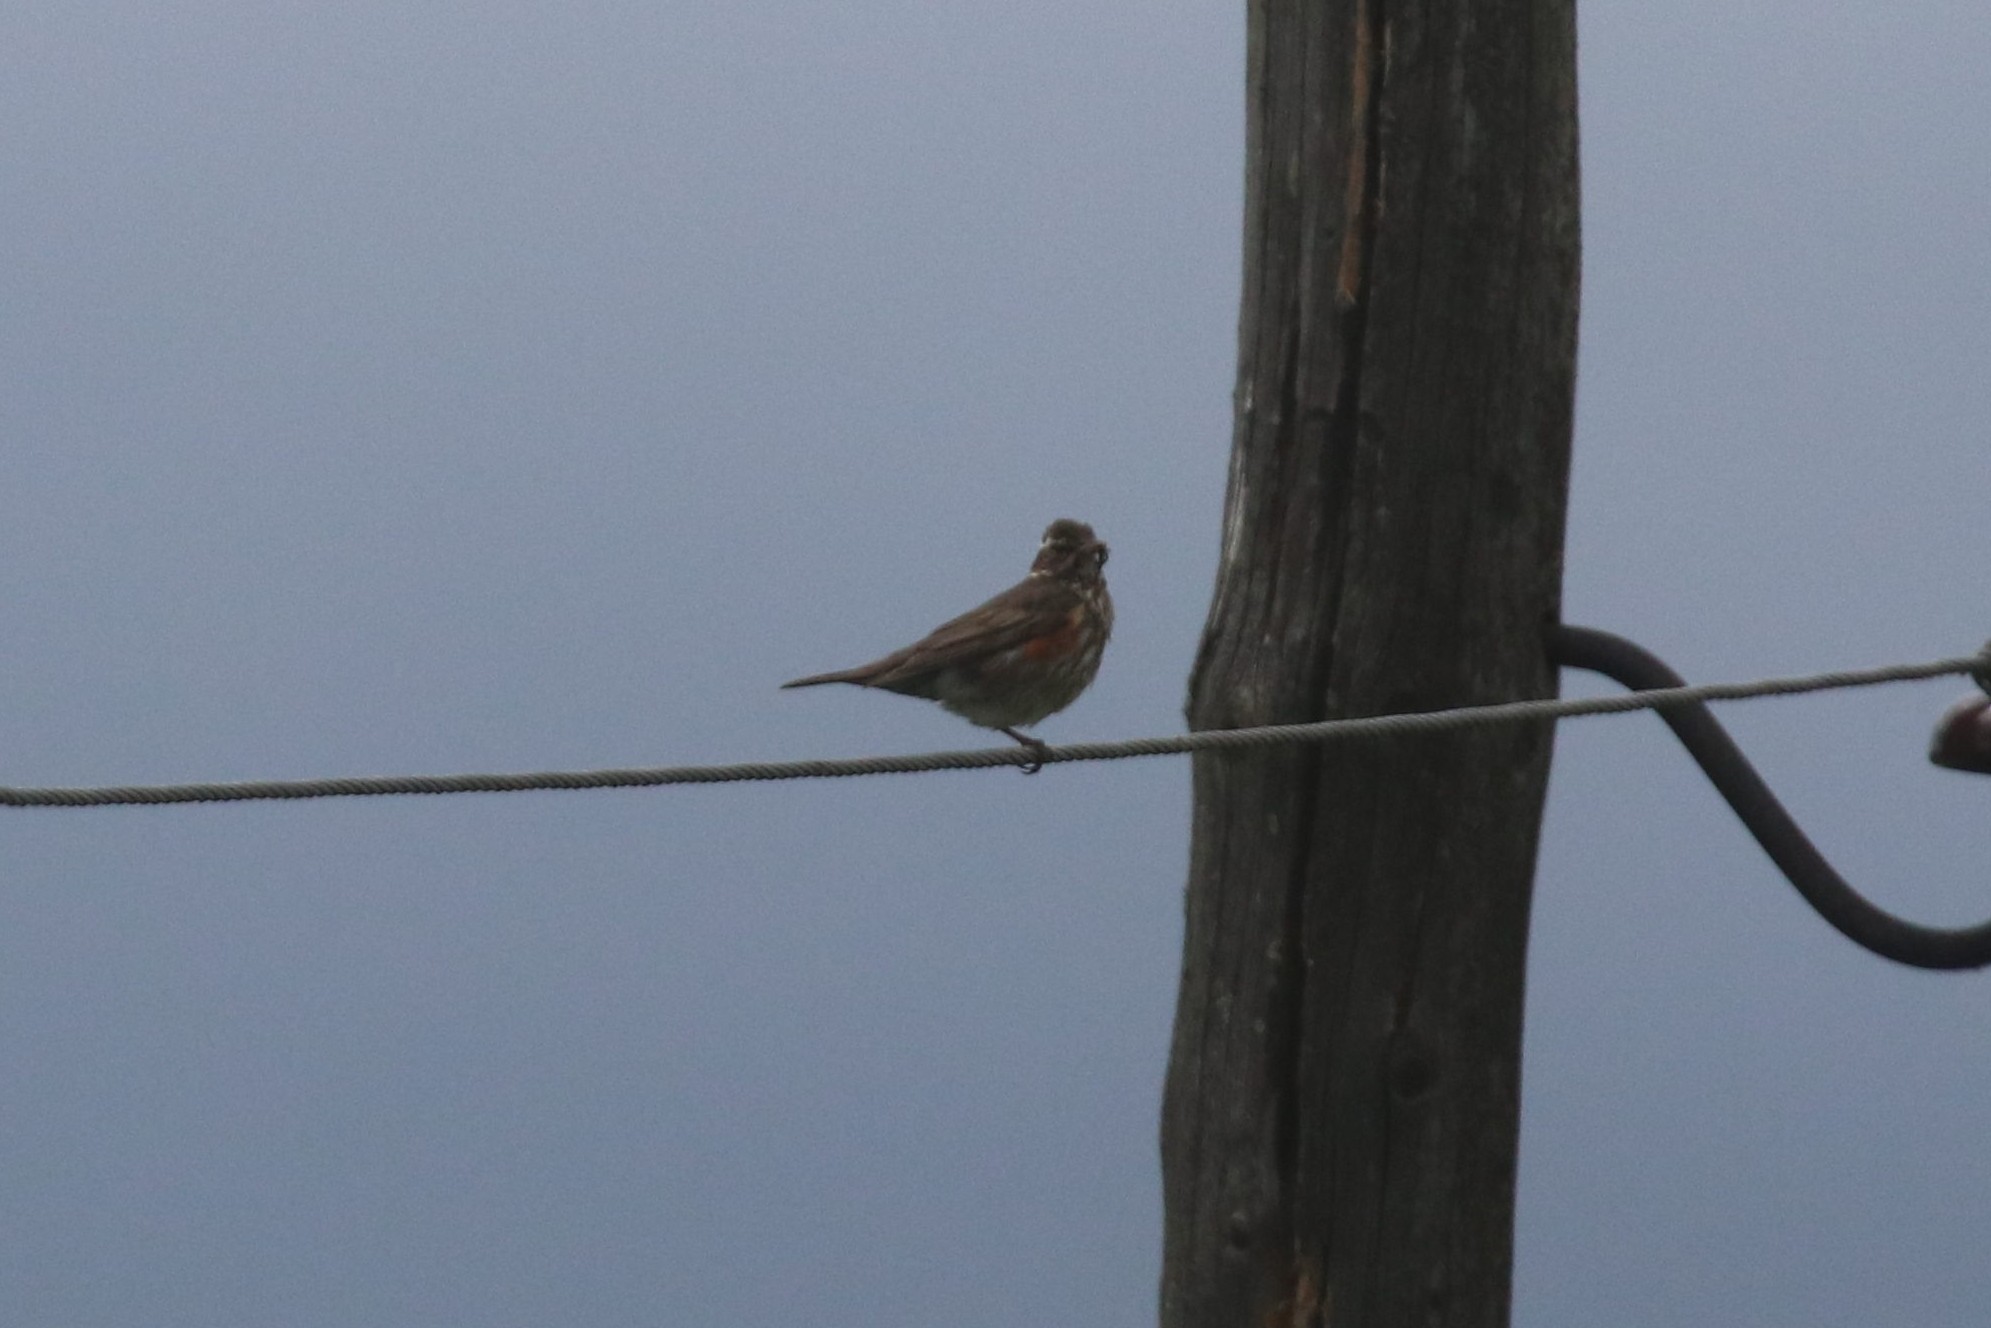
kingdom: Animalia
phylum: Chordata
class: Aves
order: Passeriformes
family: Turdidae
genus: Turdus
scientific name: Turdus iliacus
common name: Redwing
